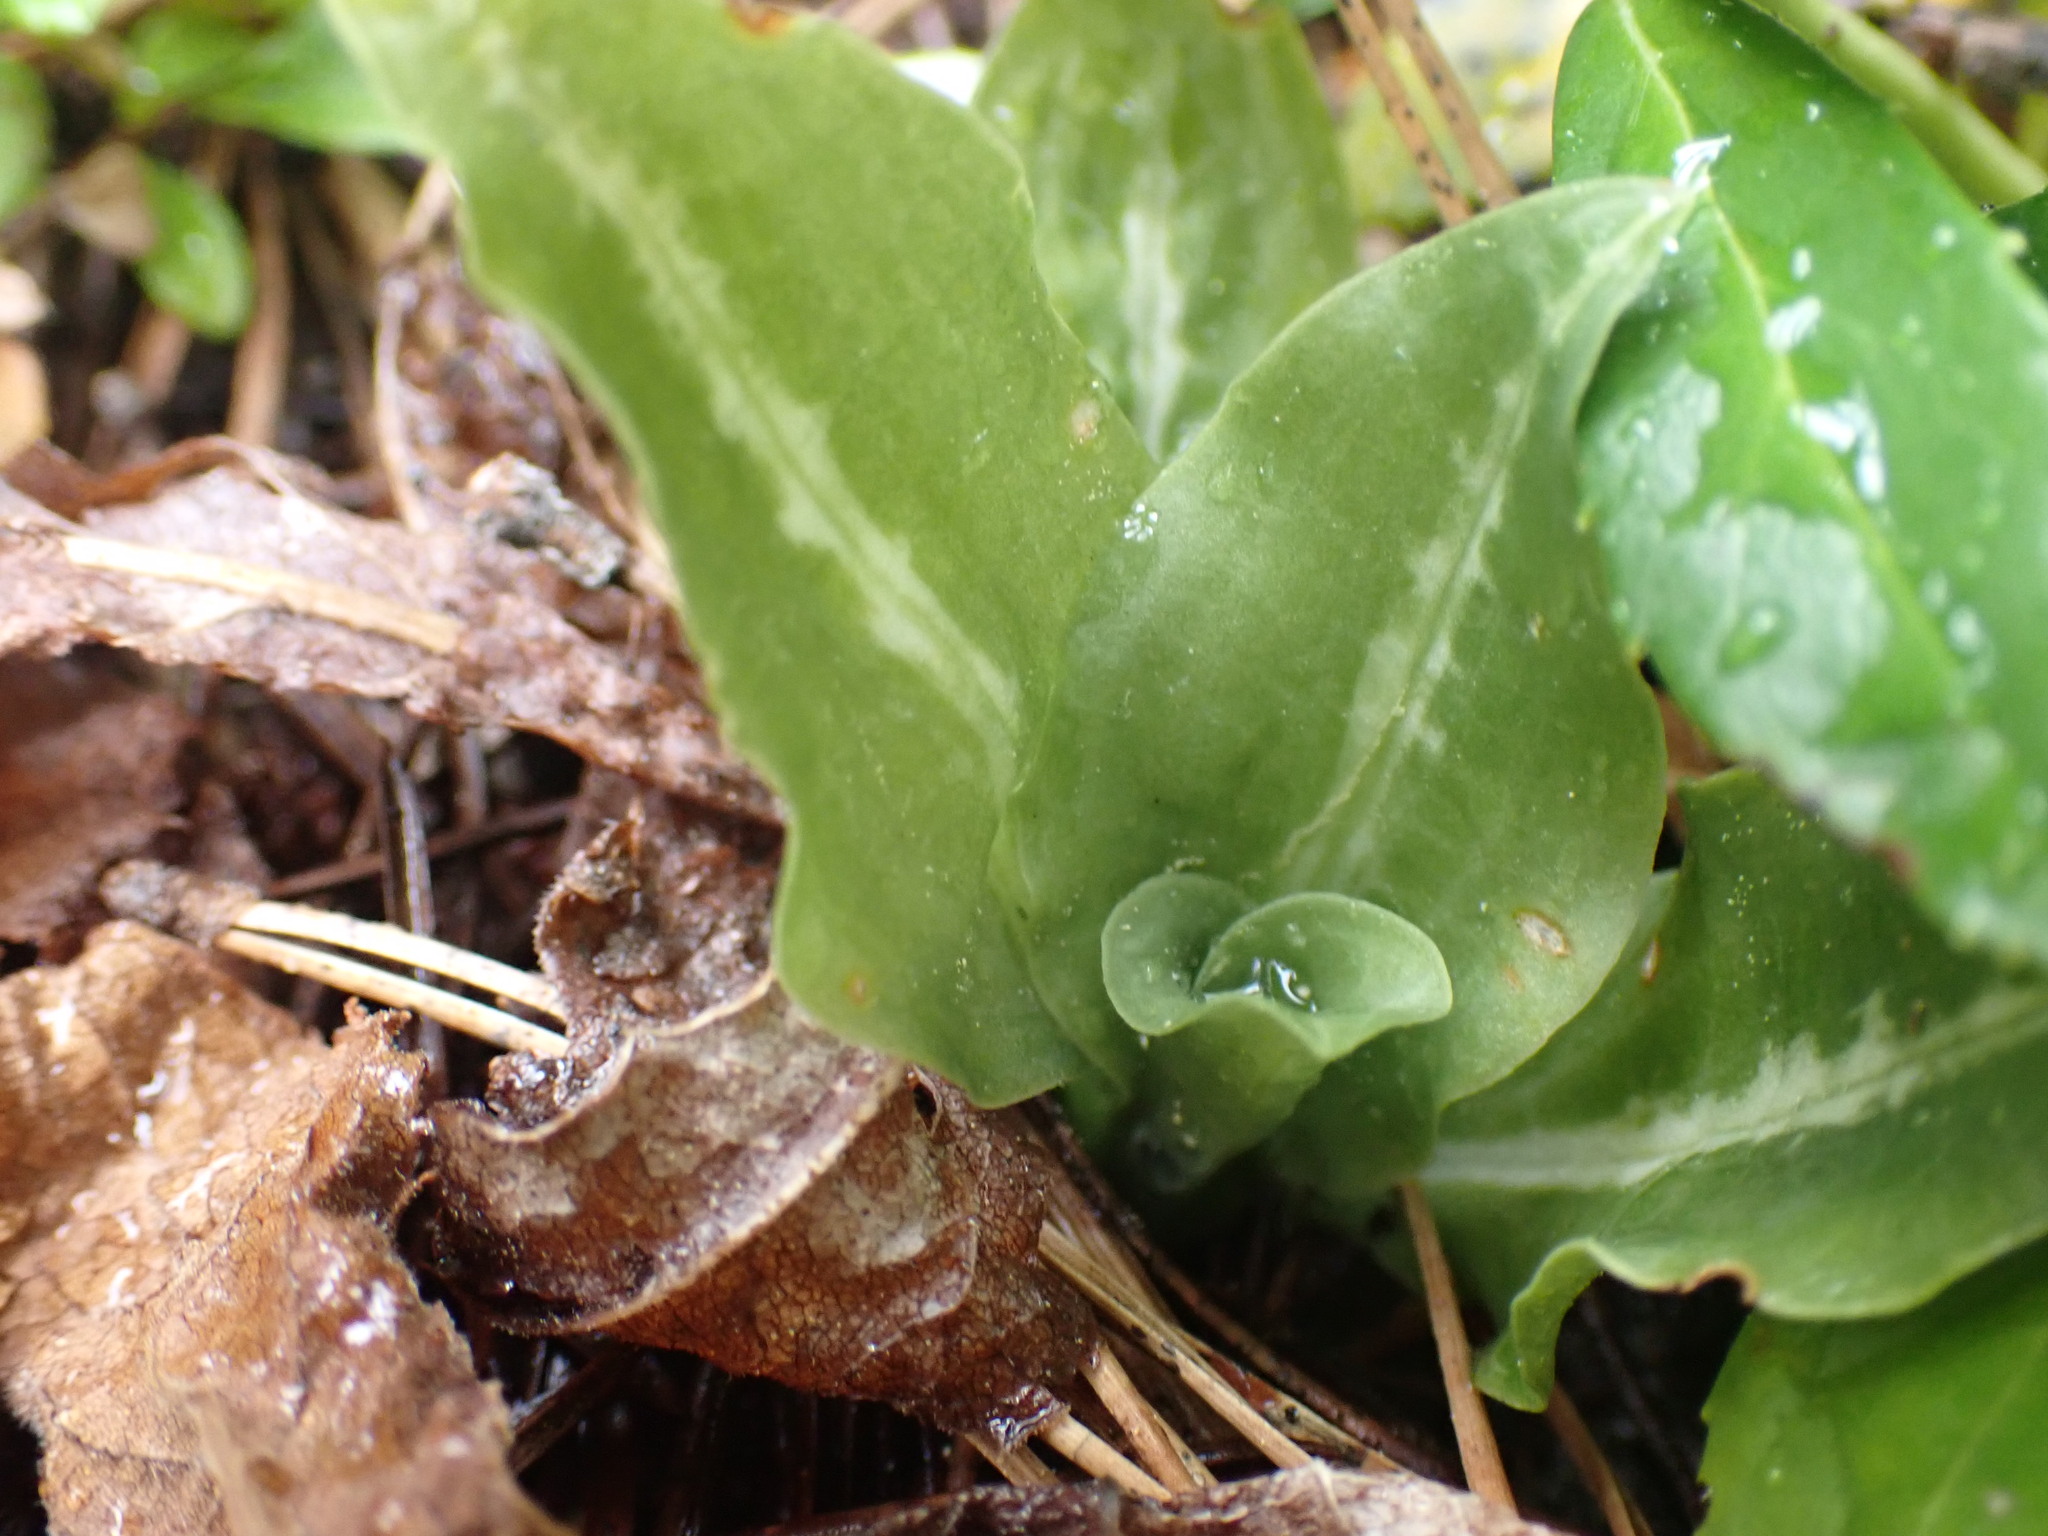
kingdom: Plantae
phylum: Tracheophyta
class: Liliopsida
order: Asparagales
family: Orchidaceae
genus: Goodyera
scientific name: Goodyera oblongifolia
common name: Giant rattlesnake-plantain
